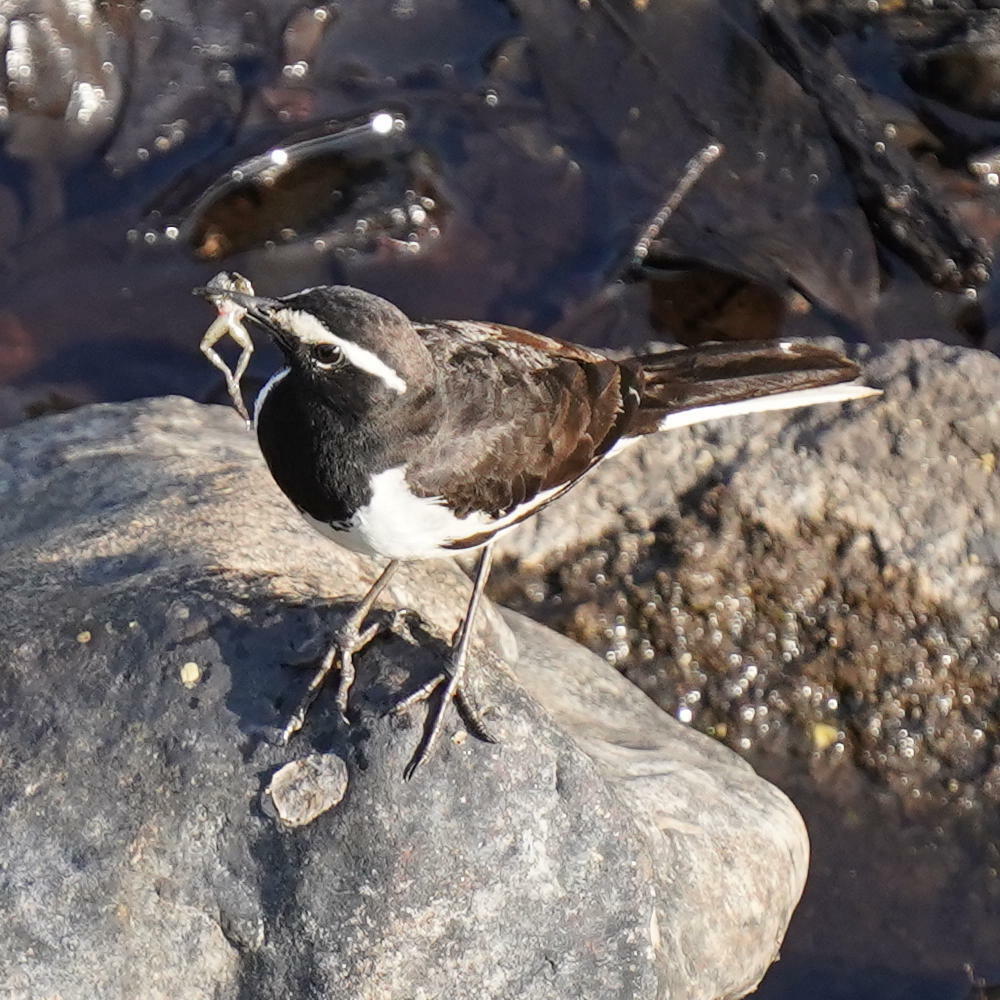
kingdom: Animalia
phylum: Chordata
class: Aves
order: Passeriformes
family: Motacillidae
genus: Motacilla
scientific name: Motacilla maderaspatensis
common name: White-browed wagtail
